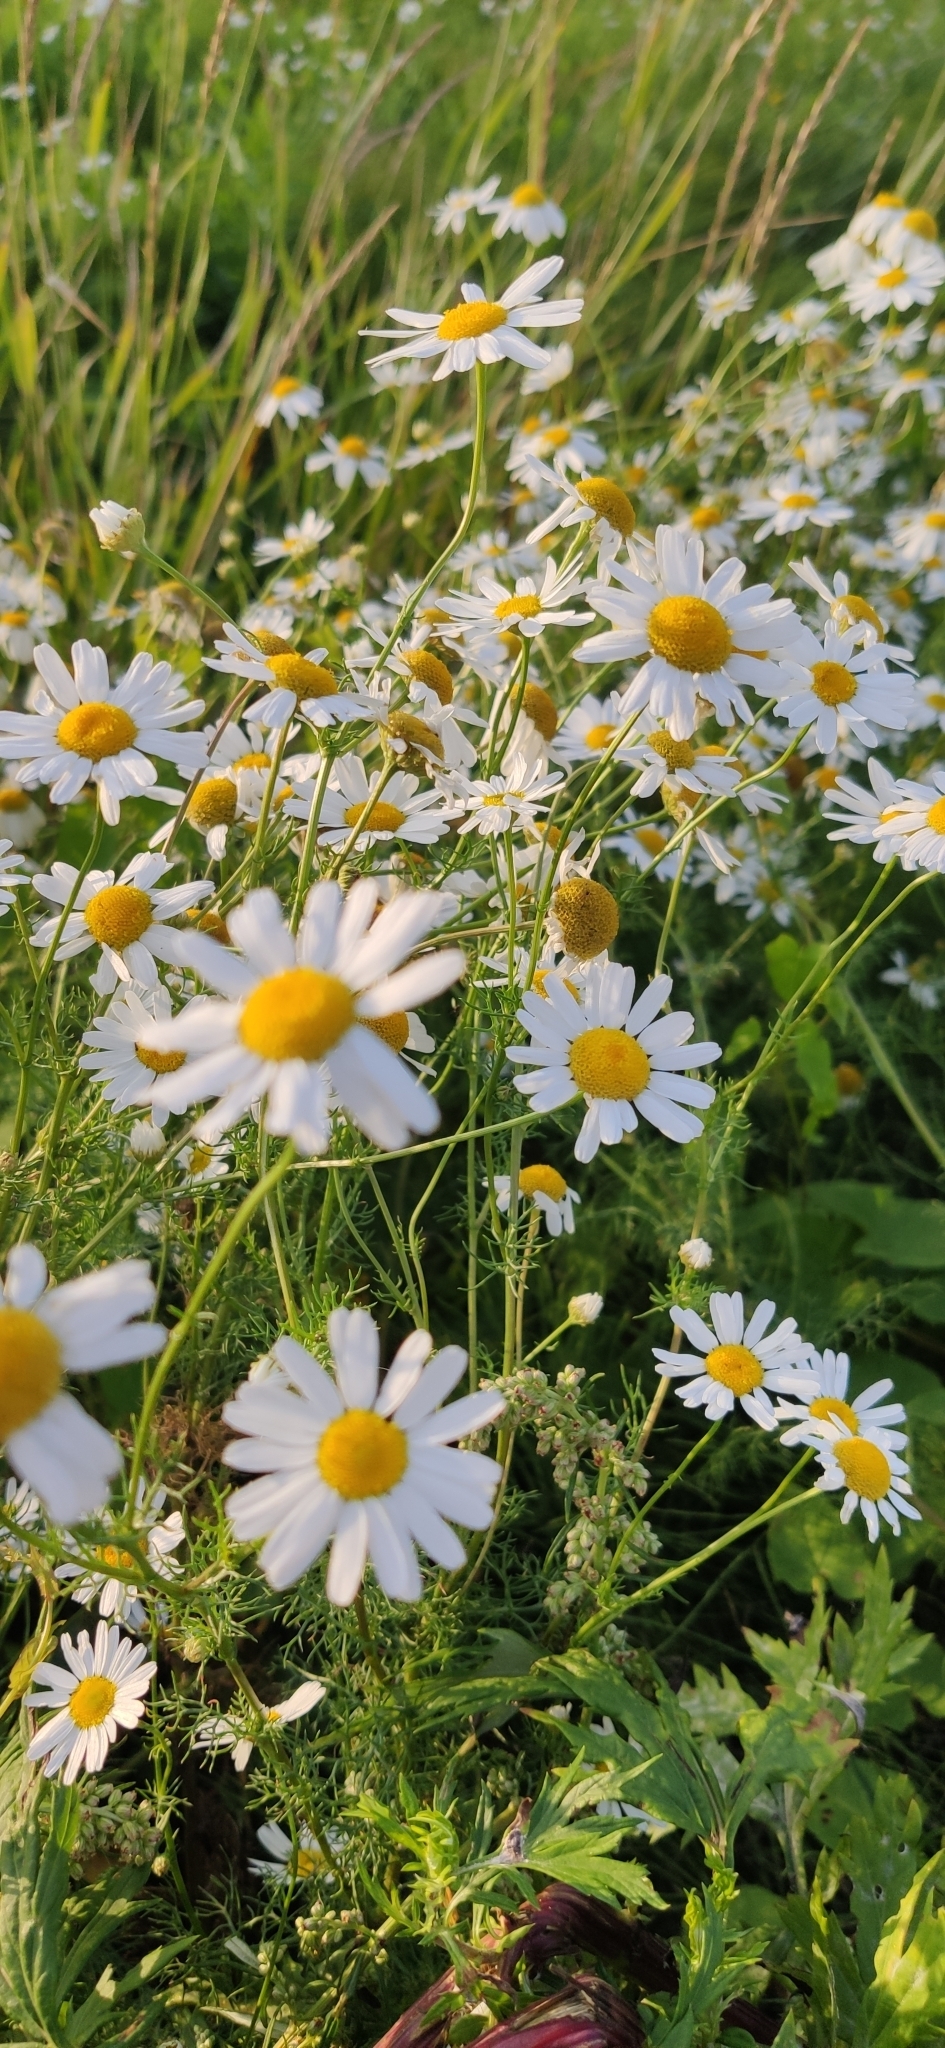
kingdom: Plantae
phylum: Tracheophyta
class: Magnoliopsida
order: Asterales
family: Asteraceae
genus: Tripleurospermum
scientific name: Tripleurospermum inodorum
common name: Scentless mayweed
